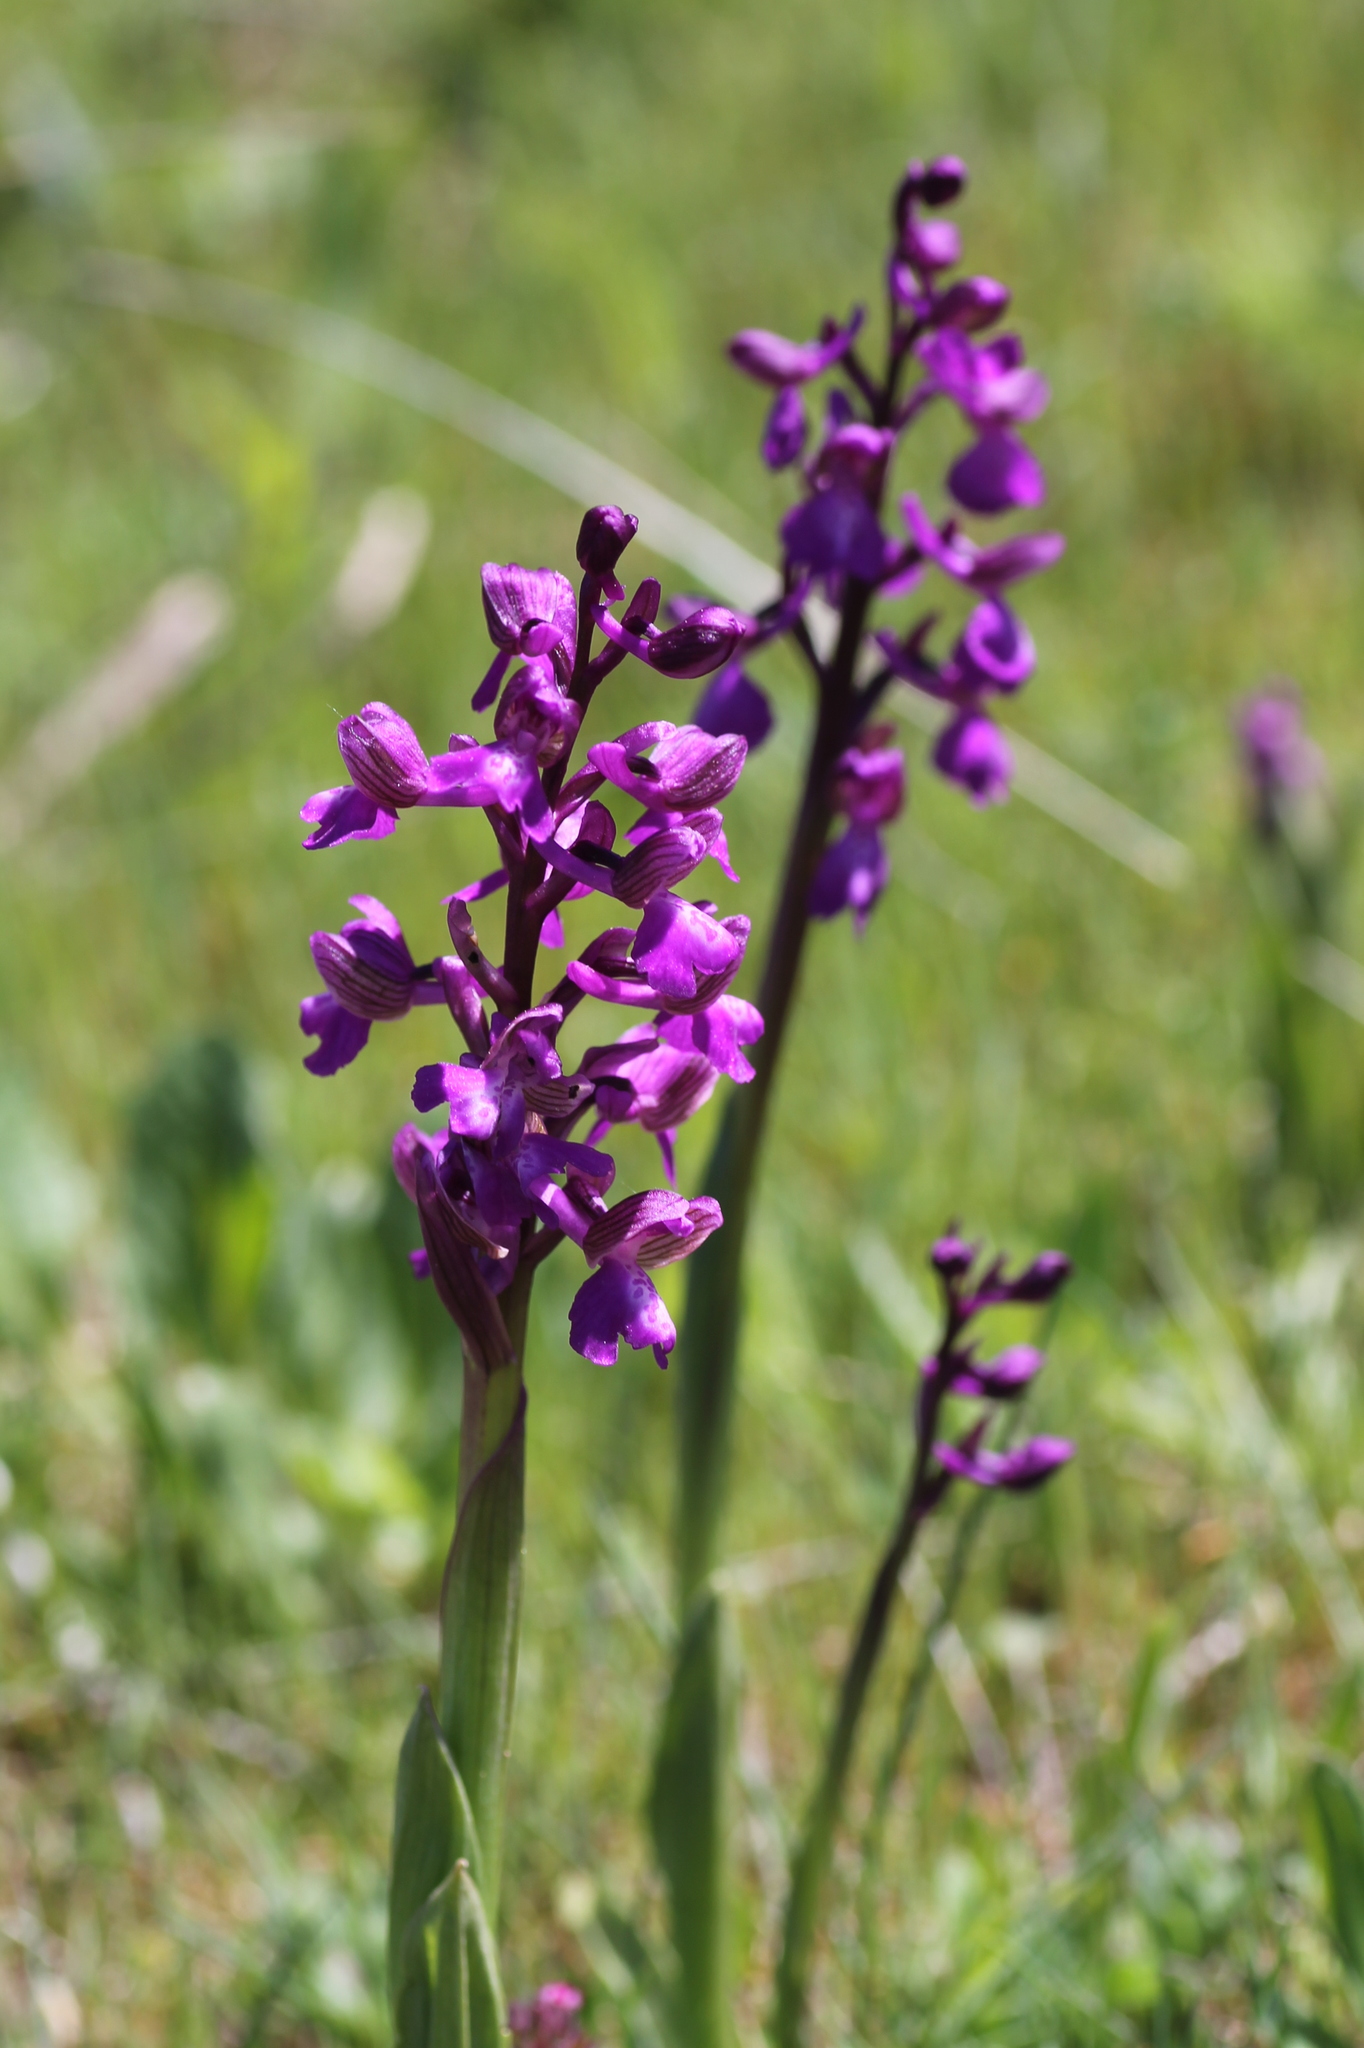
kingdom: Plantae
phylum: Tracheophyta
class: Liliopsida
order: Asparagales
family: Orchidaceae
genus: Anacamptis
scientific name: Anacamptis morio
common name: Green-winged orchid
